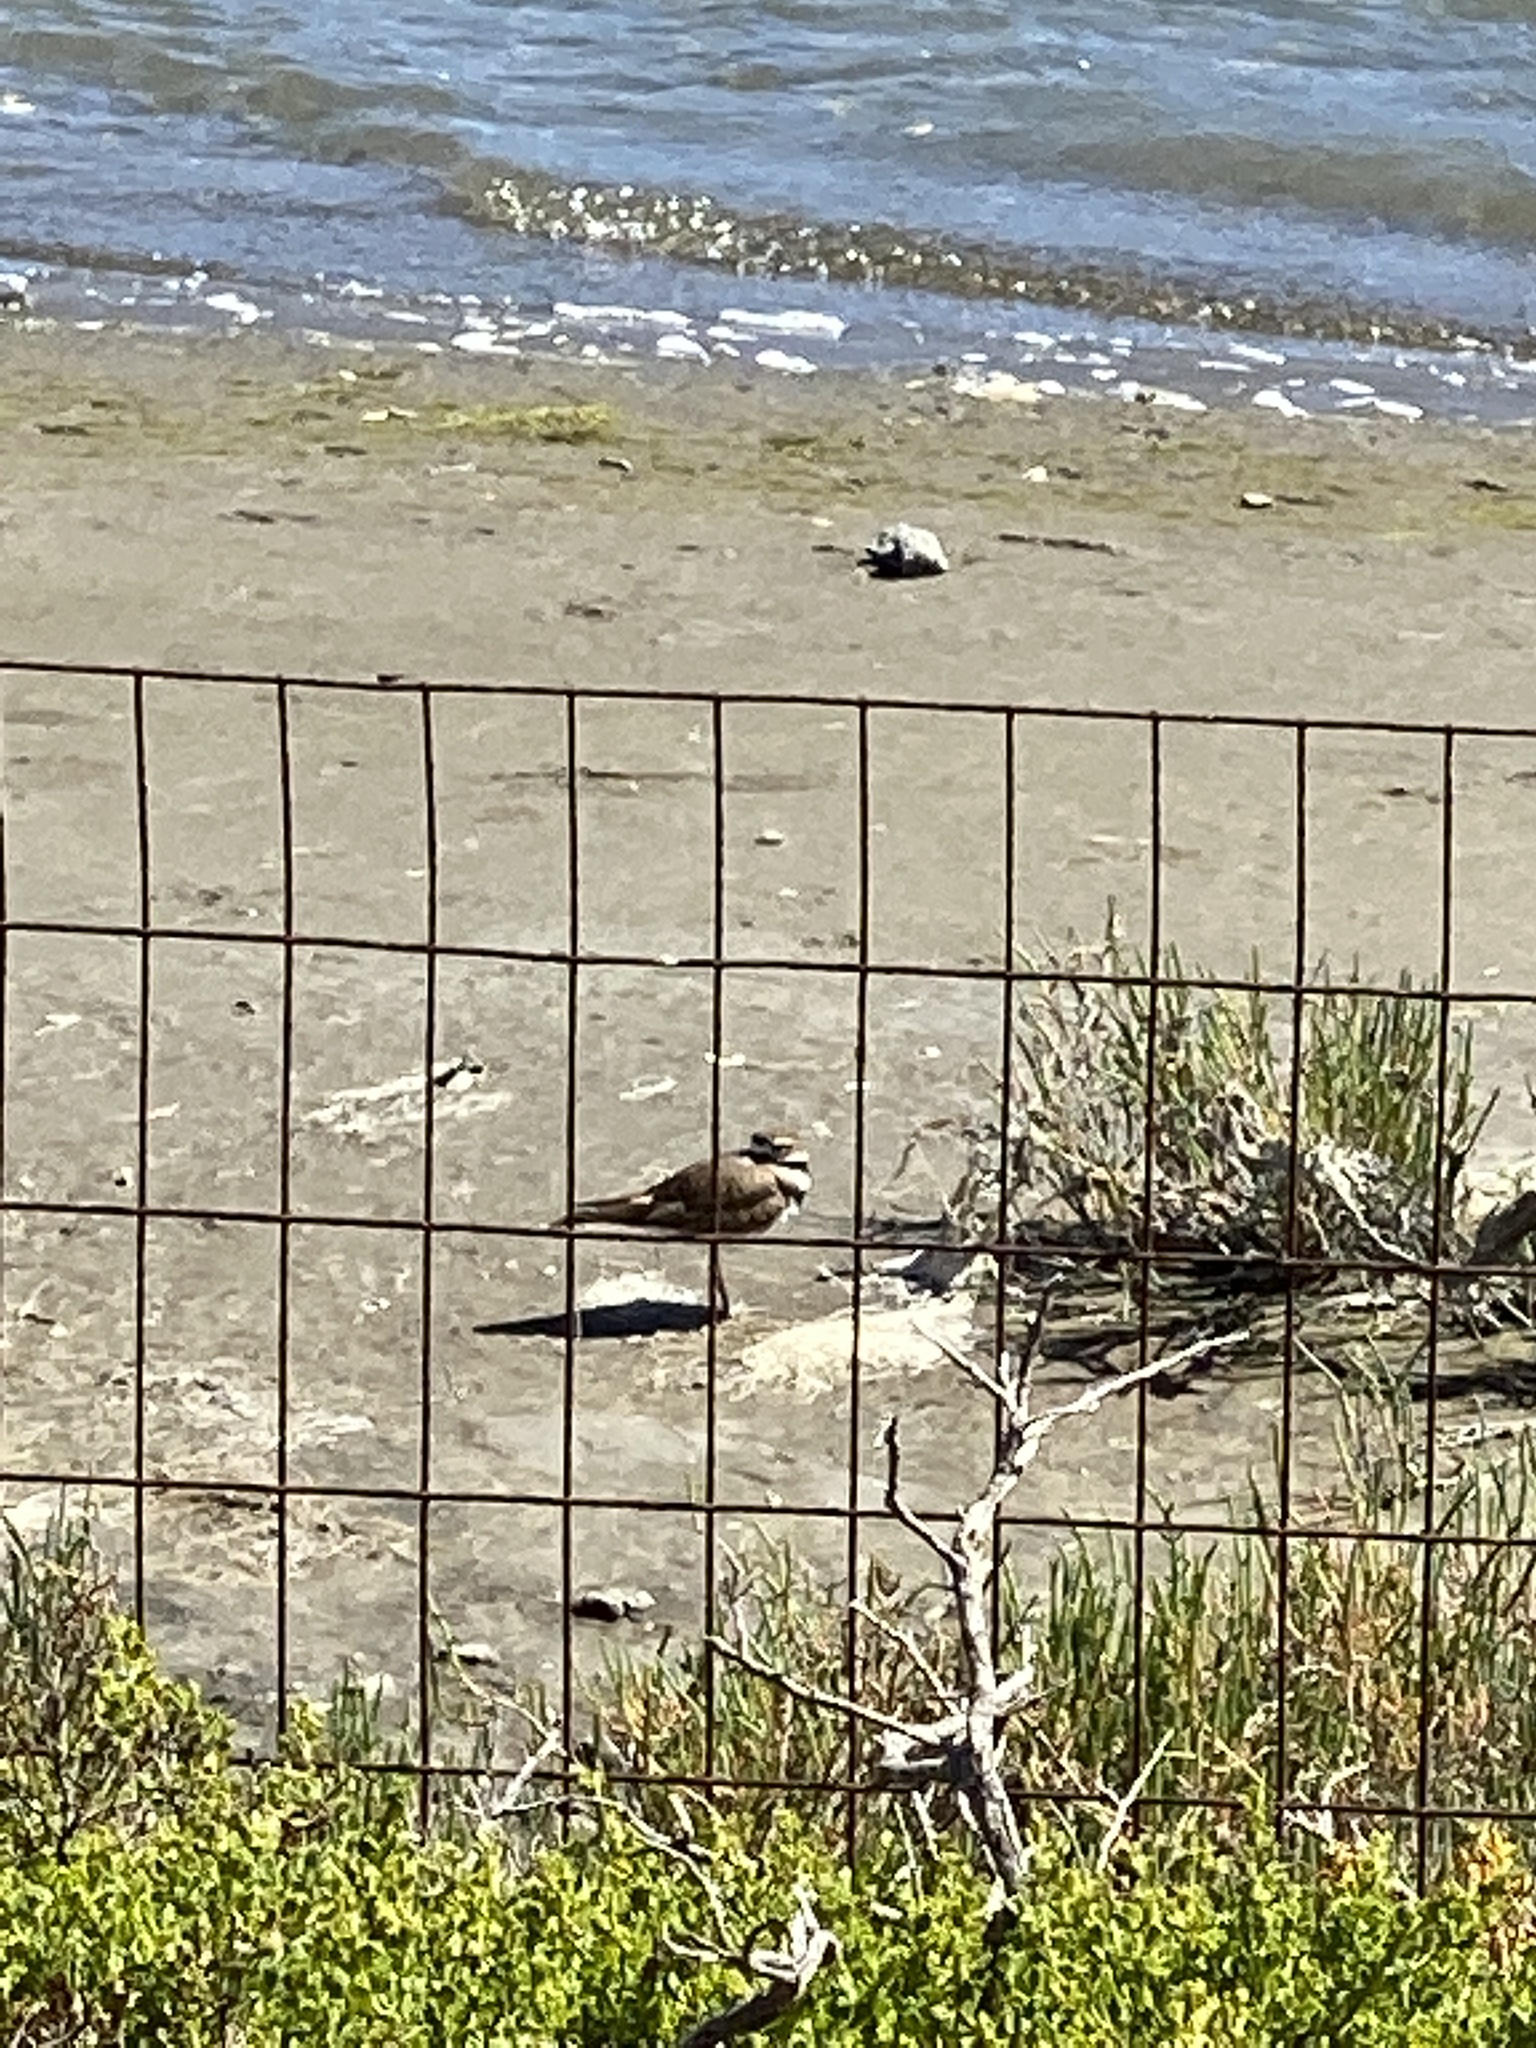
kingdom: Animalia
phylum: Chordata
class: Aves
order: Charadriiformes
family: Charadriidae
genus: Charadrius
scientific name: Charadrius vociferus
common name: Killdeer
